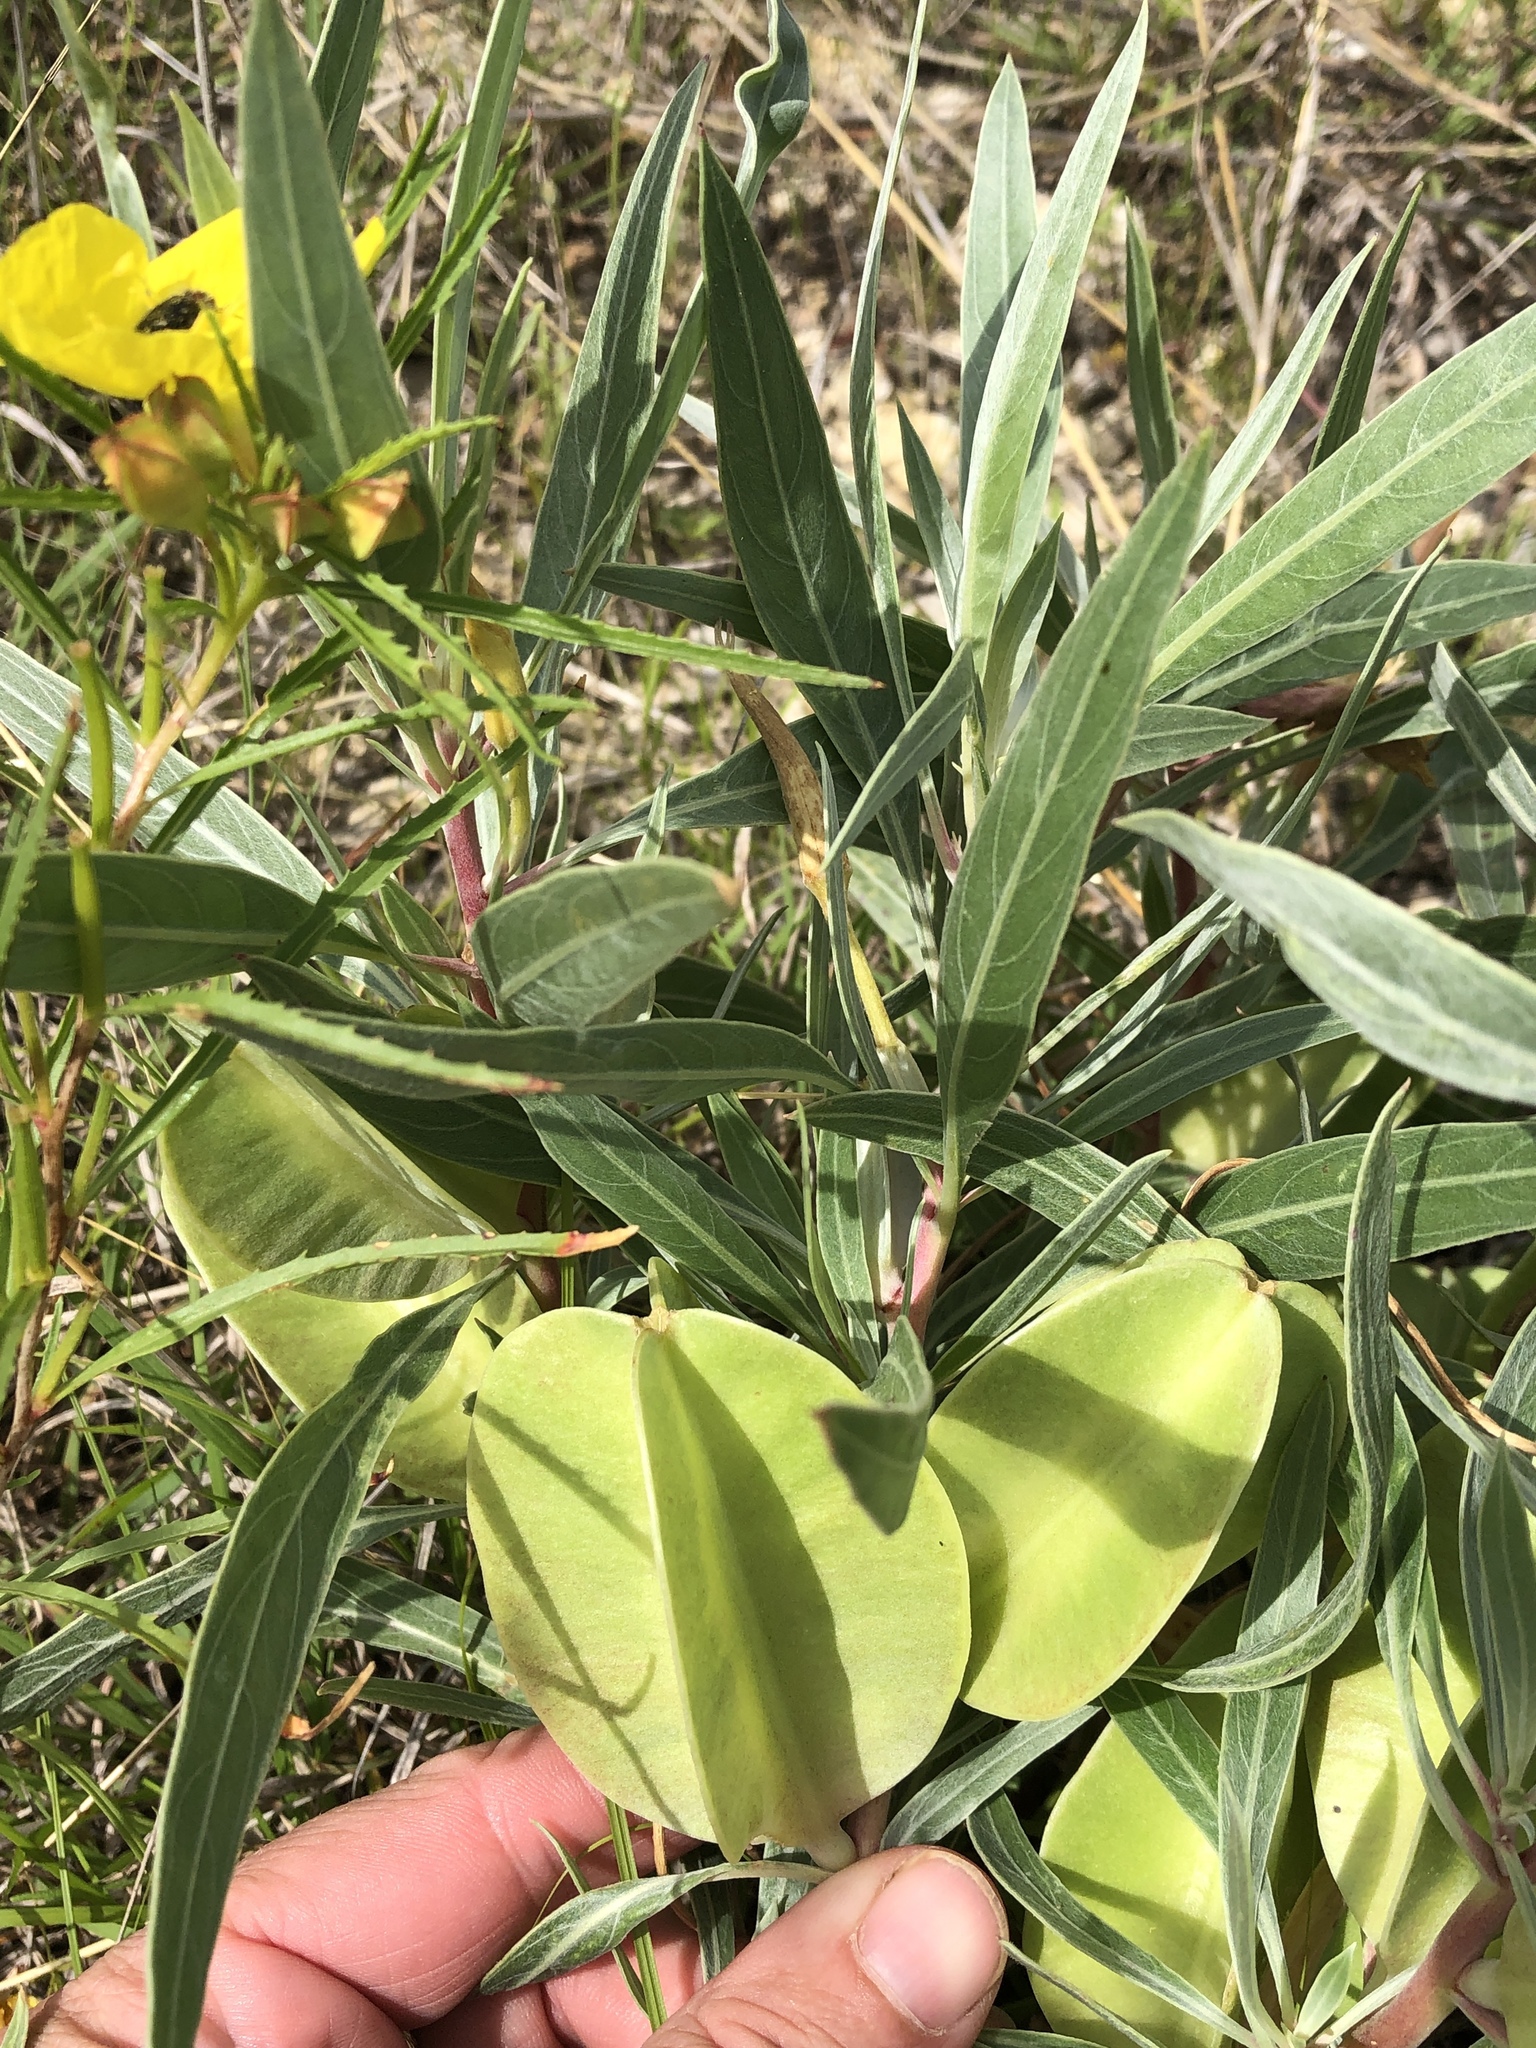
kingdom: Plantae
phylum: Tracheophyta
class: Magnoliopsida
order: Myrtales
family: Onagraceae
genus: Oenothera
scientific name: Oenothera macrocarpa
